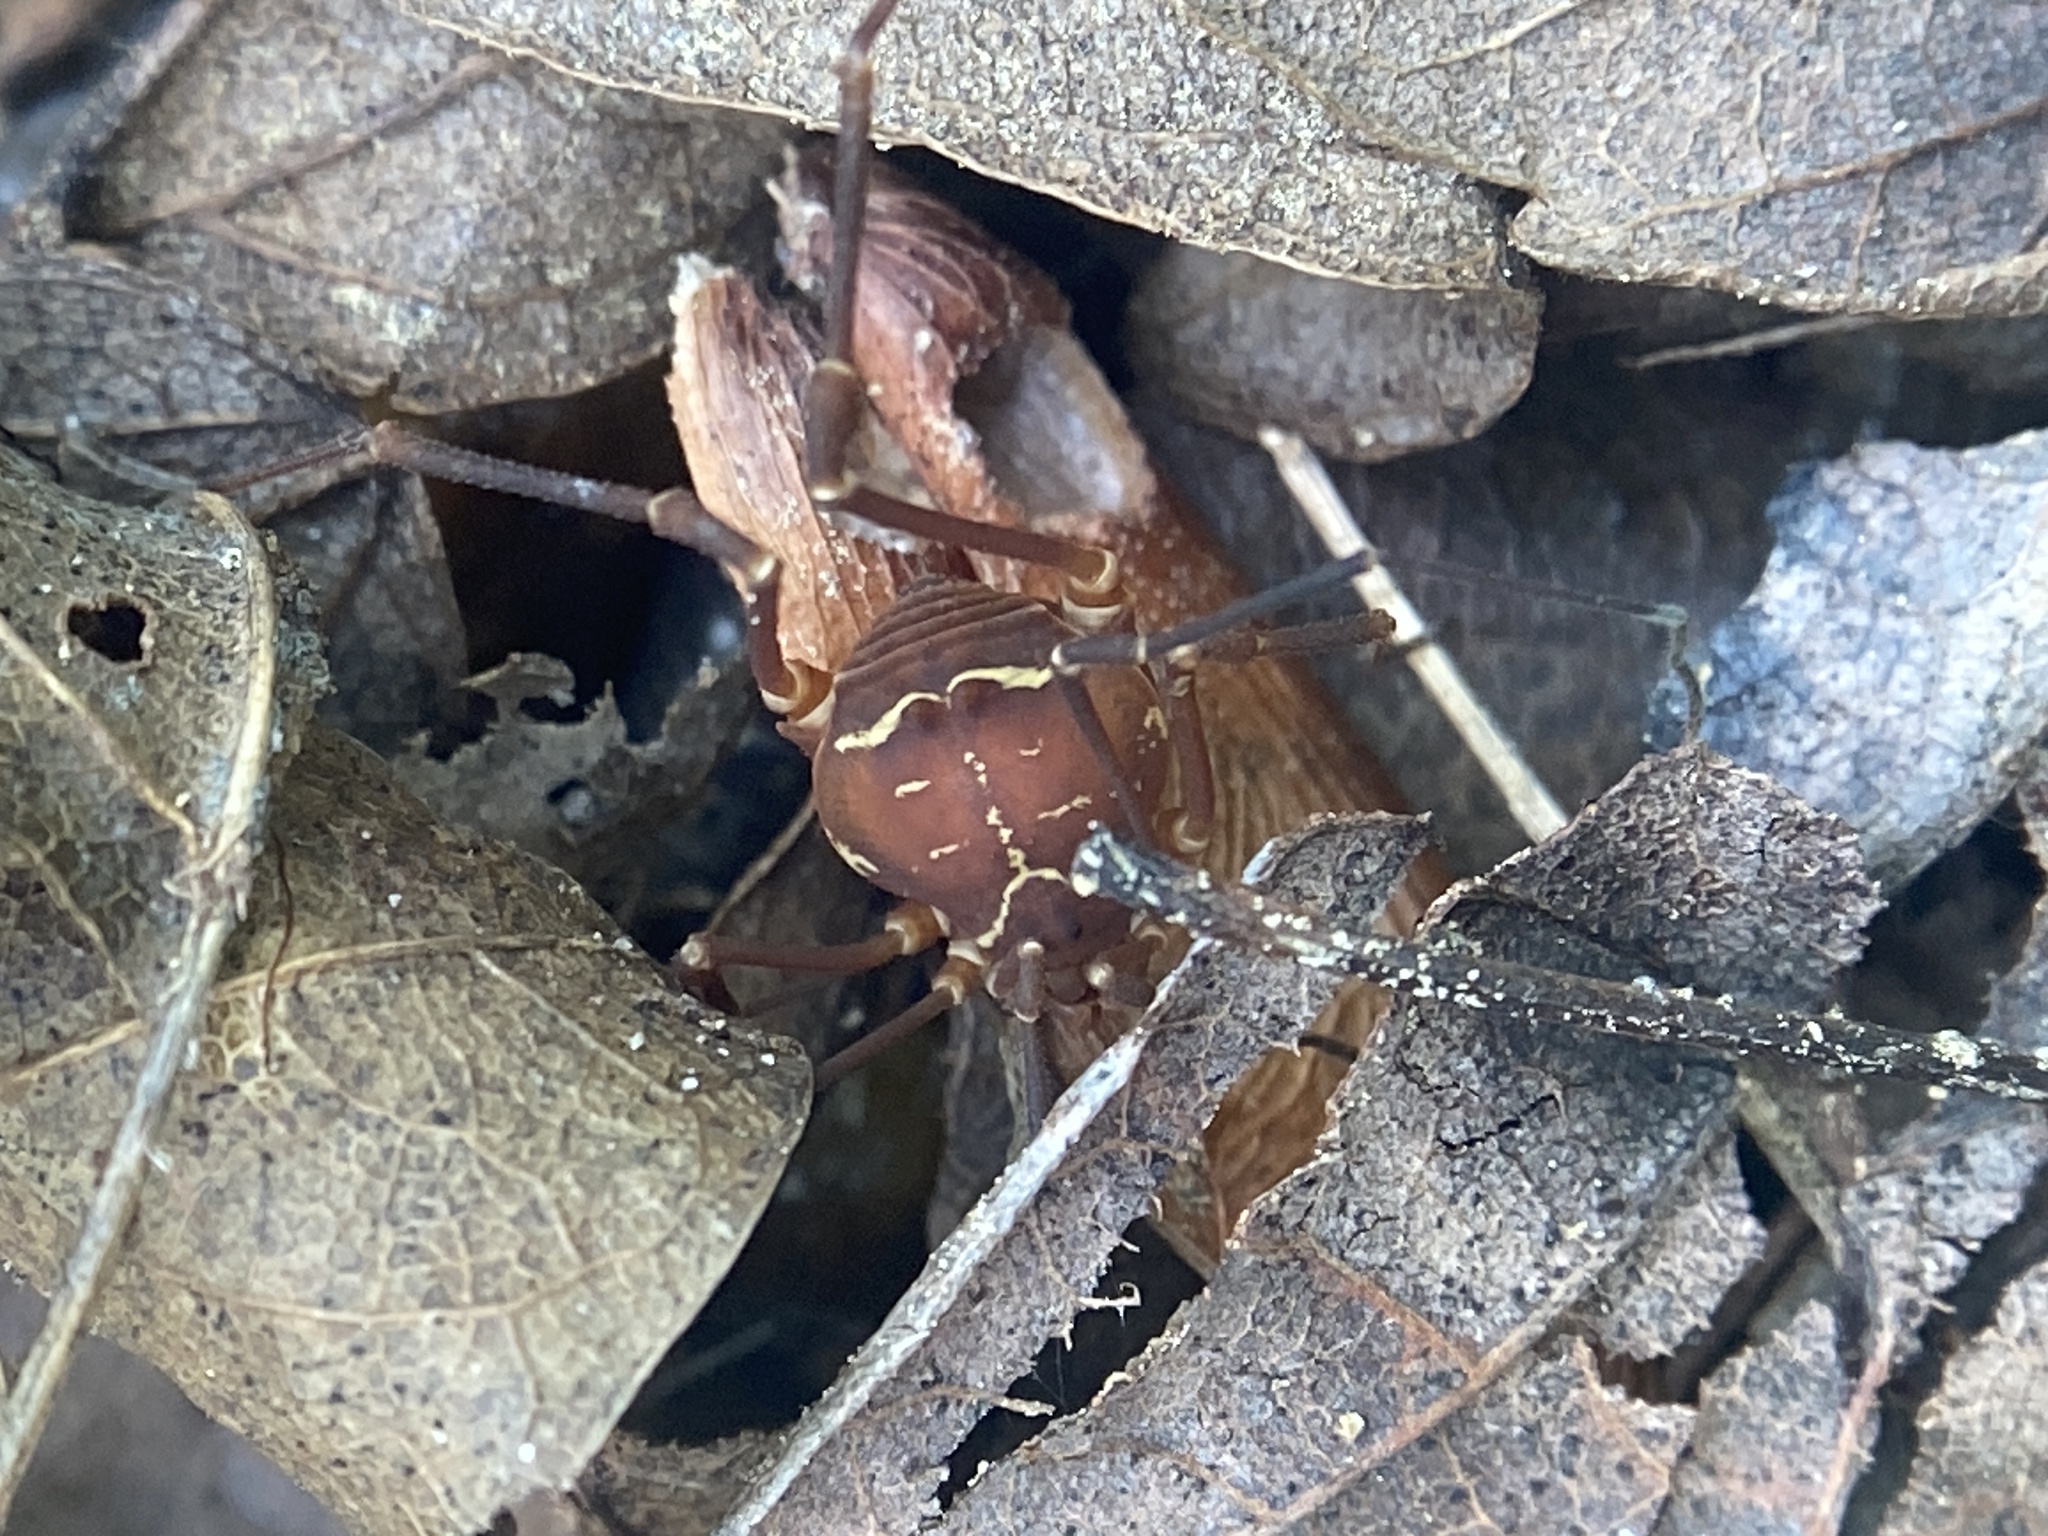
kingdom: Animalia
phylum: Arthropoda
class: Arachnida
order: Opiliones
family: Cosmetidae
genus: Libitioides
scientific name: Libitioides ornata
